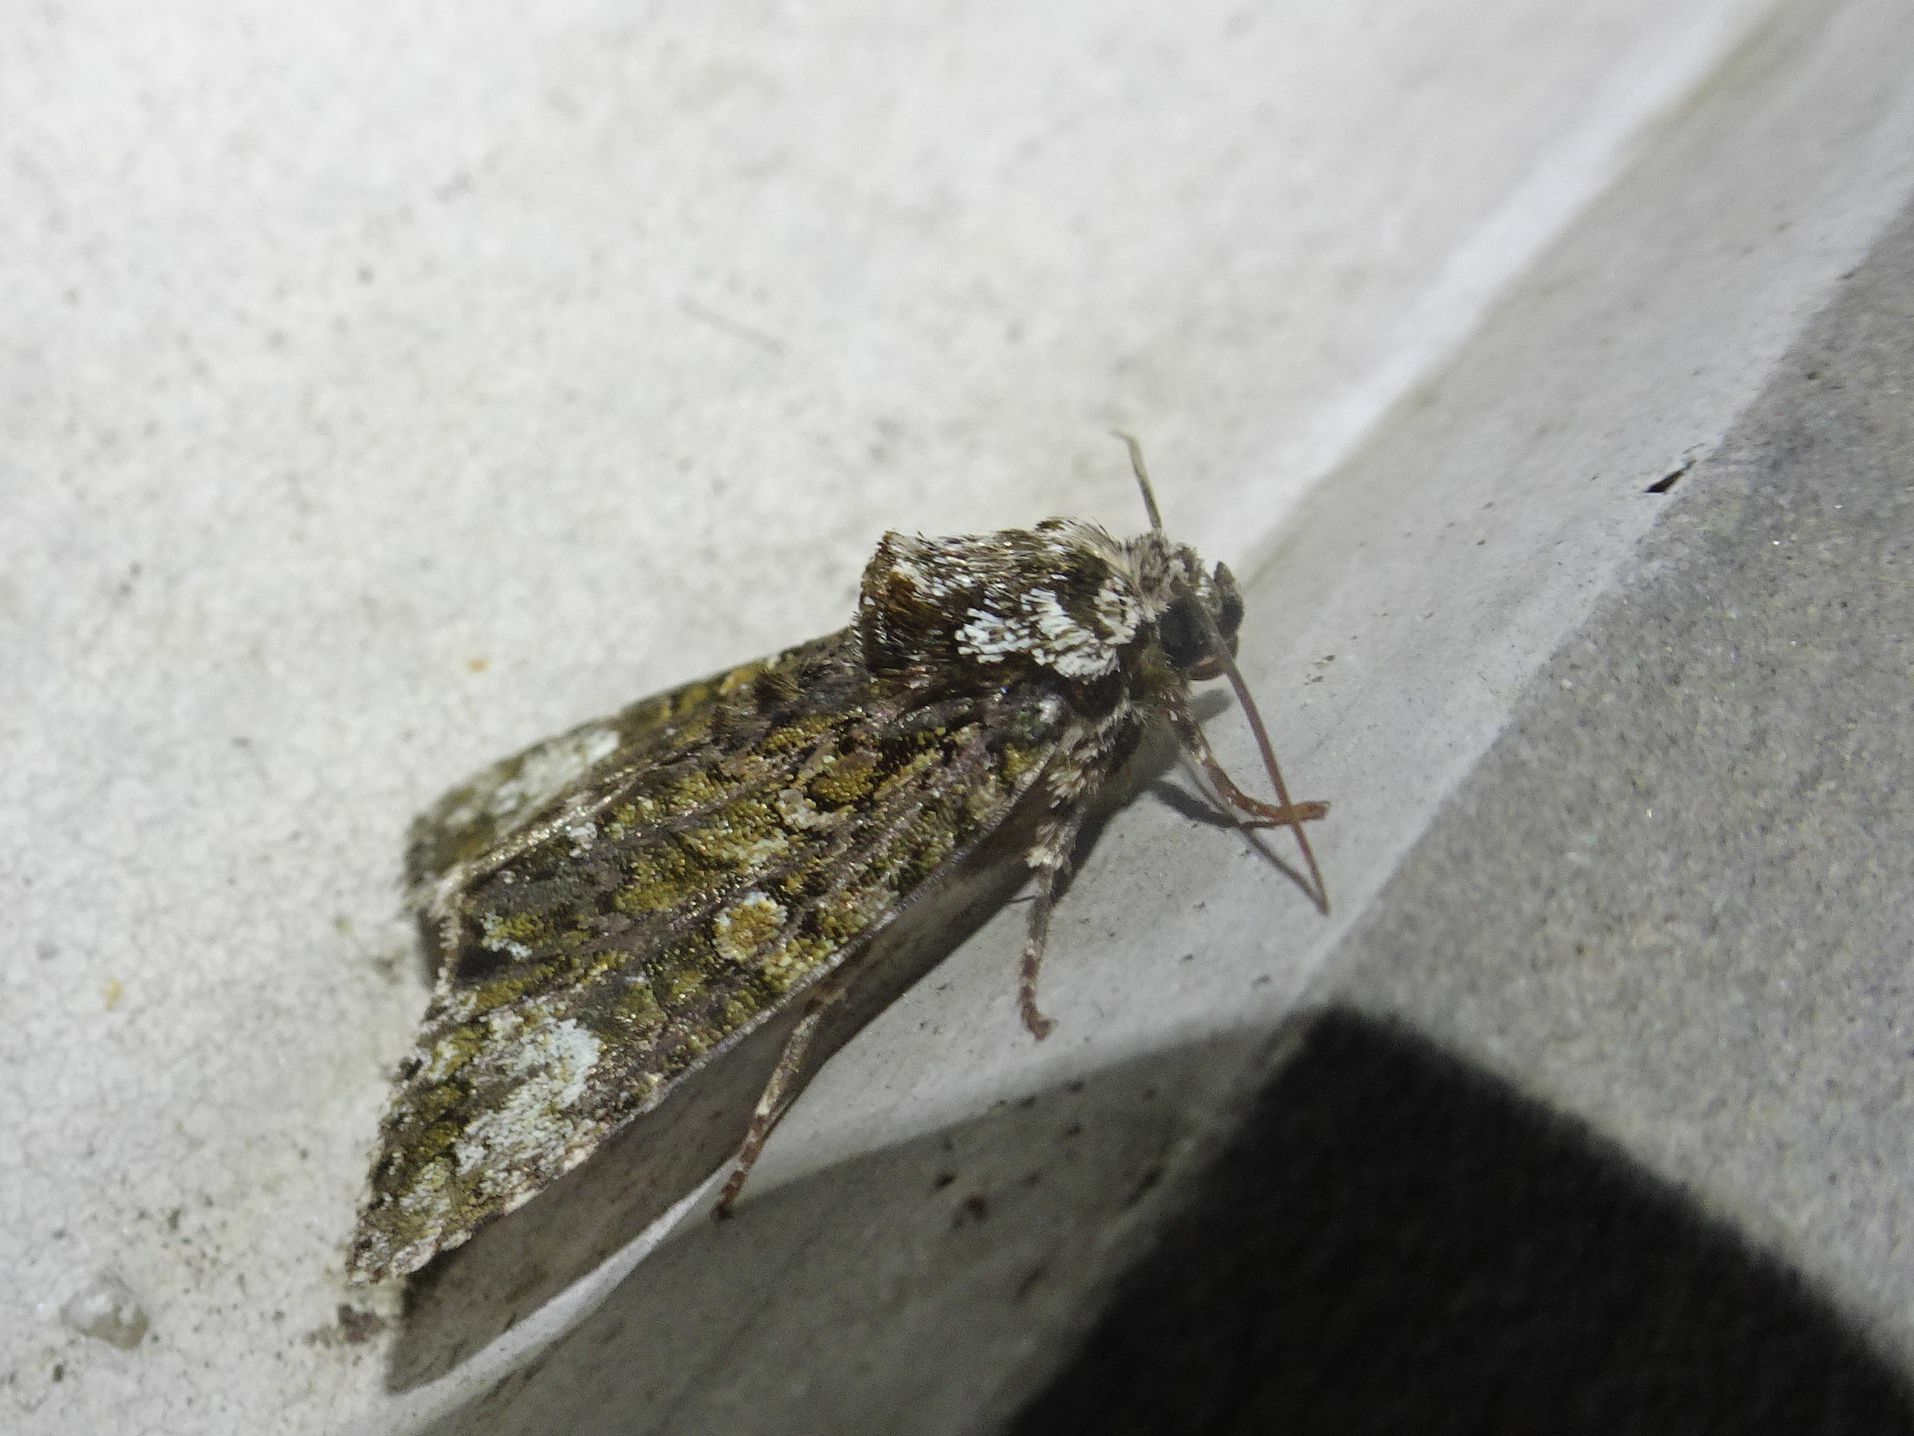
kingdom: Animalia
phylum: Arthropoda
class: Insecta
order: Lepidoptera
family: Noctuidae
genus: Craniophora
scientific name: Craniophora ligustri
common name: Coronet
